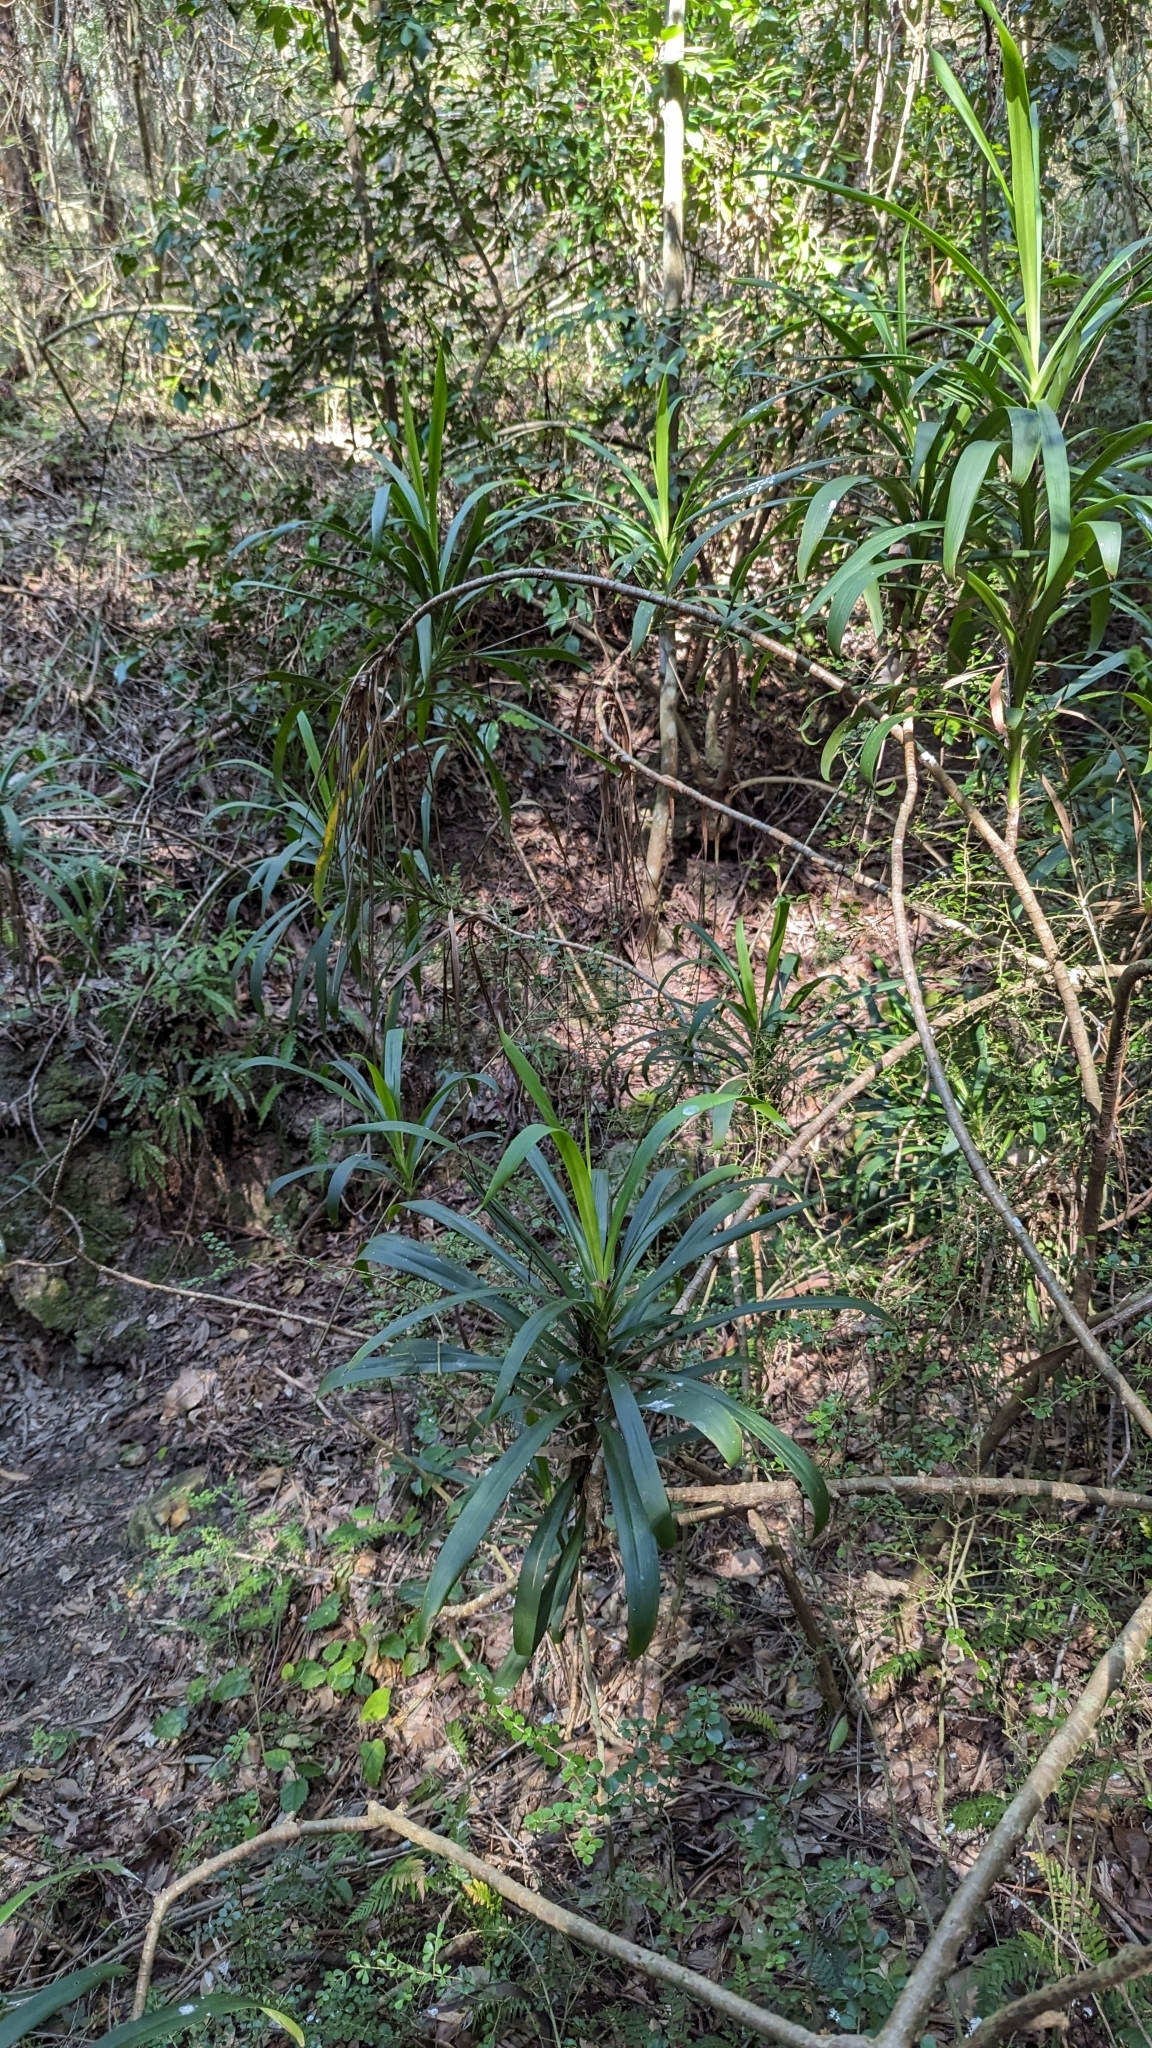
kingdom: Plantae
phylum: Tracheophyta
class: Liliopsida
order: Asparagales
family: Asparagaceae
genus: Cordyline
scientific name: Cordyline stricta
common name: Narrow-leaf palm-lily
